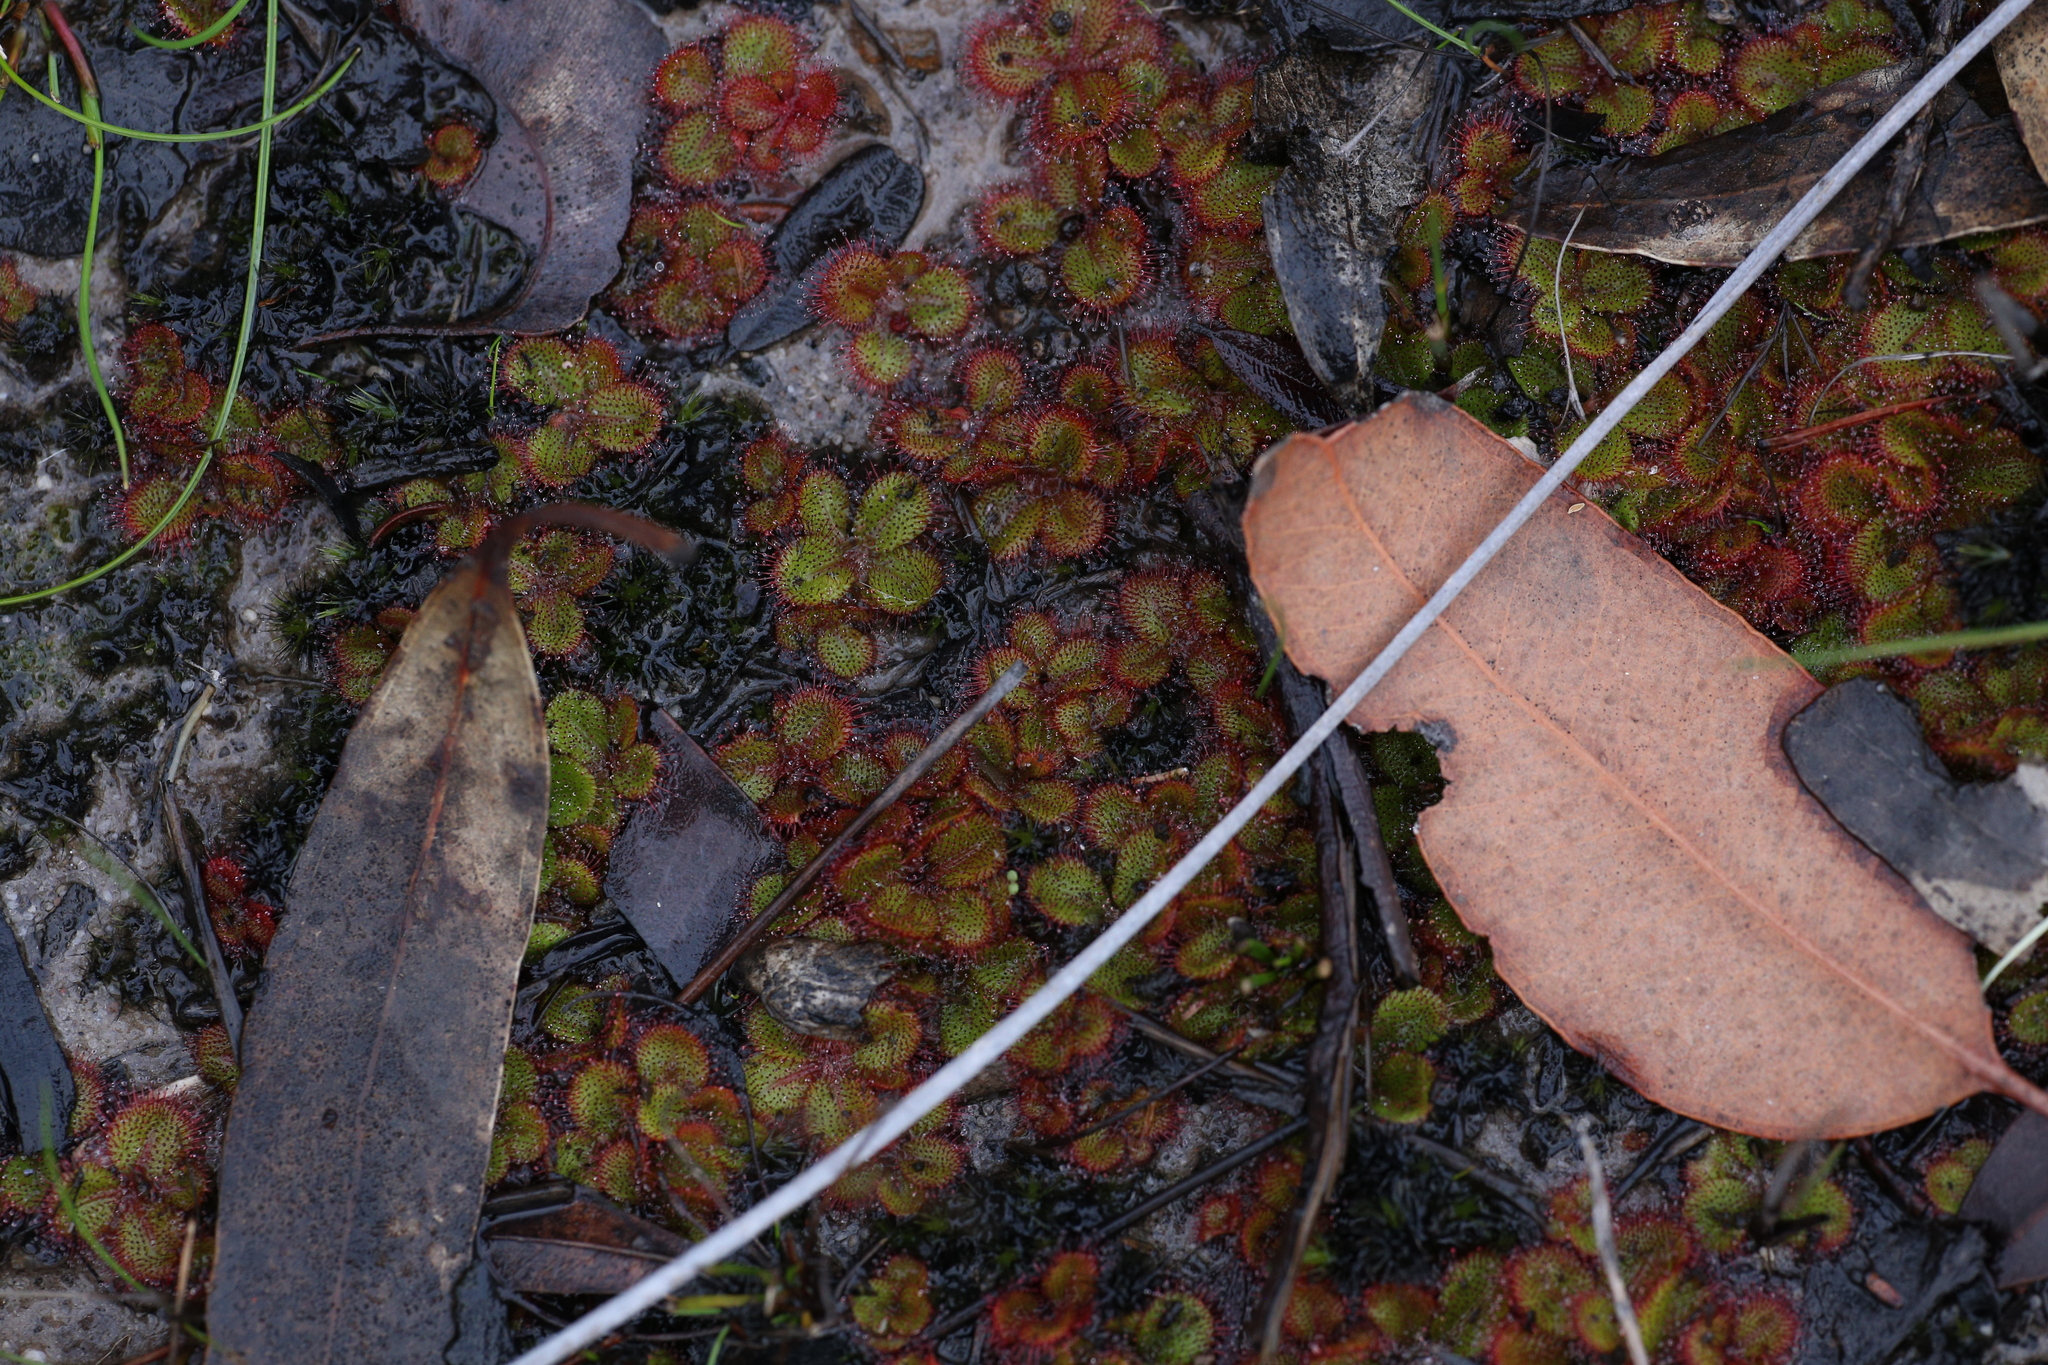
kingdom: Plantae
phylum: Tracheophyta
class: Magnoliopsida
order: Caryophyllales
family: Droseraceae
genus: Drosera
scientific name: Drosera tubaestylis
